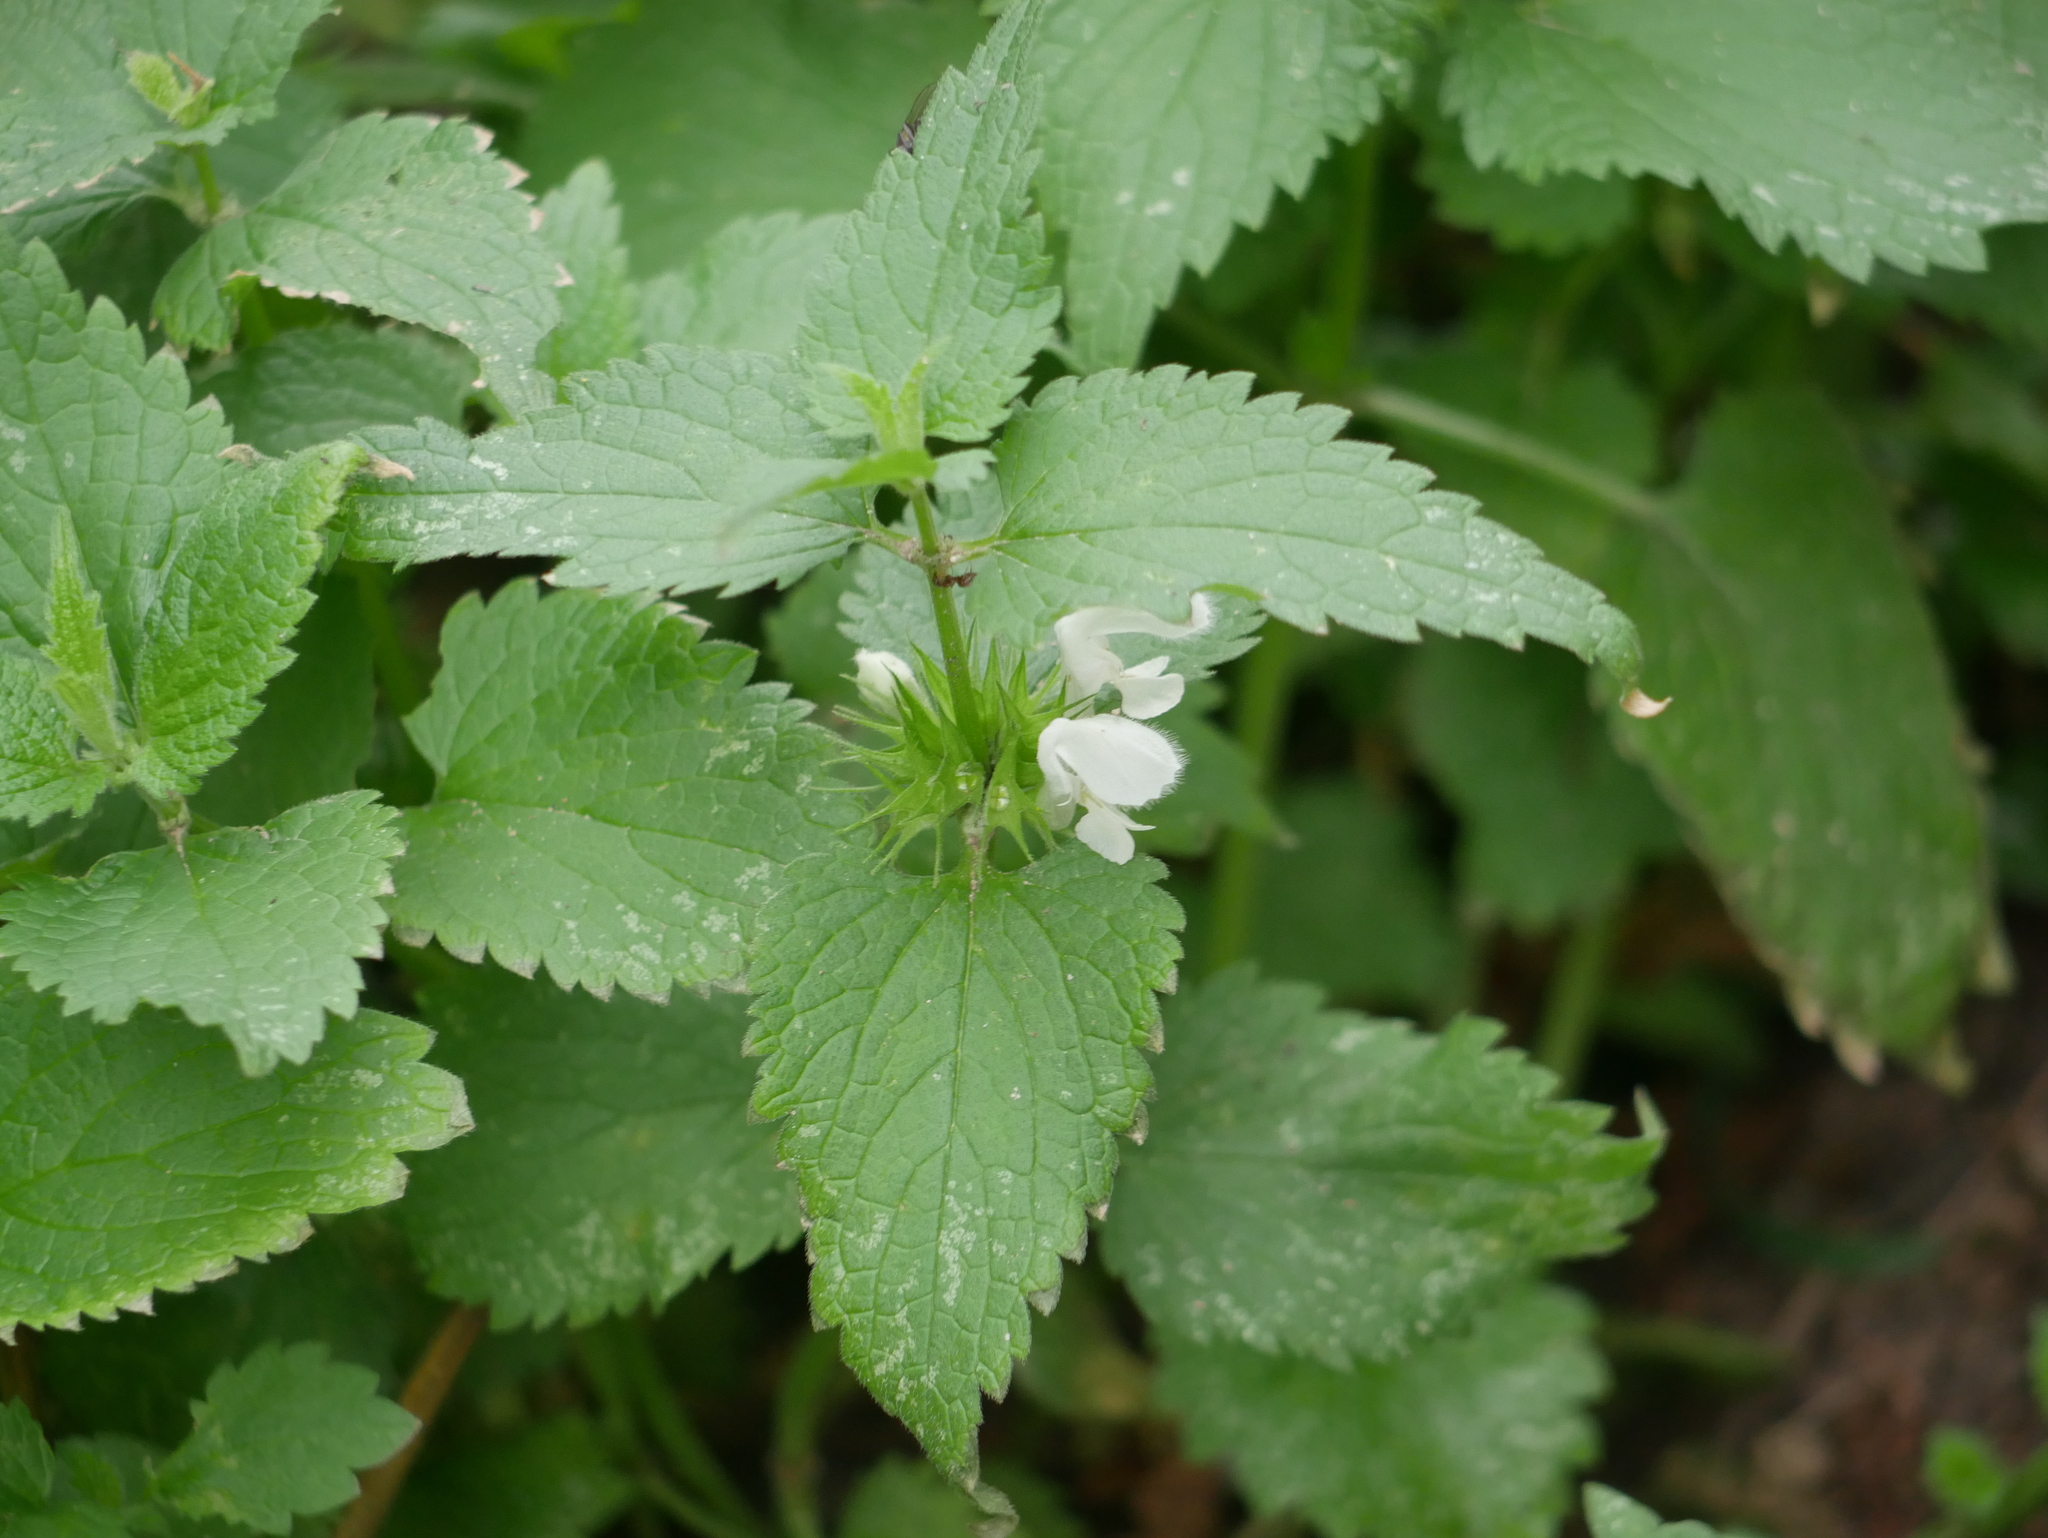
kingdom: Plantae
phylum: Tracheophyta
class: Magnoliopsida
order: Lamiales
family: Lamiaceae
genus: Lamium
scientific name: Lamium album
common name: White dead-nettle
